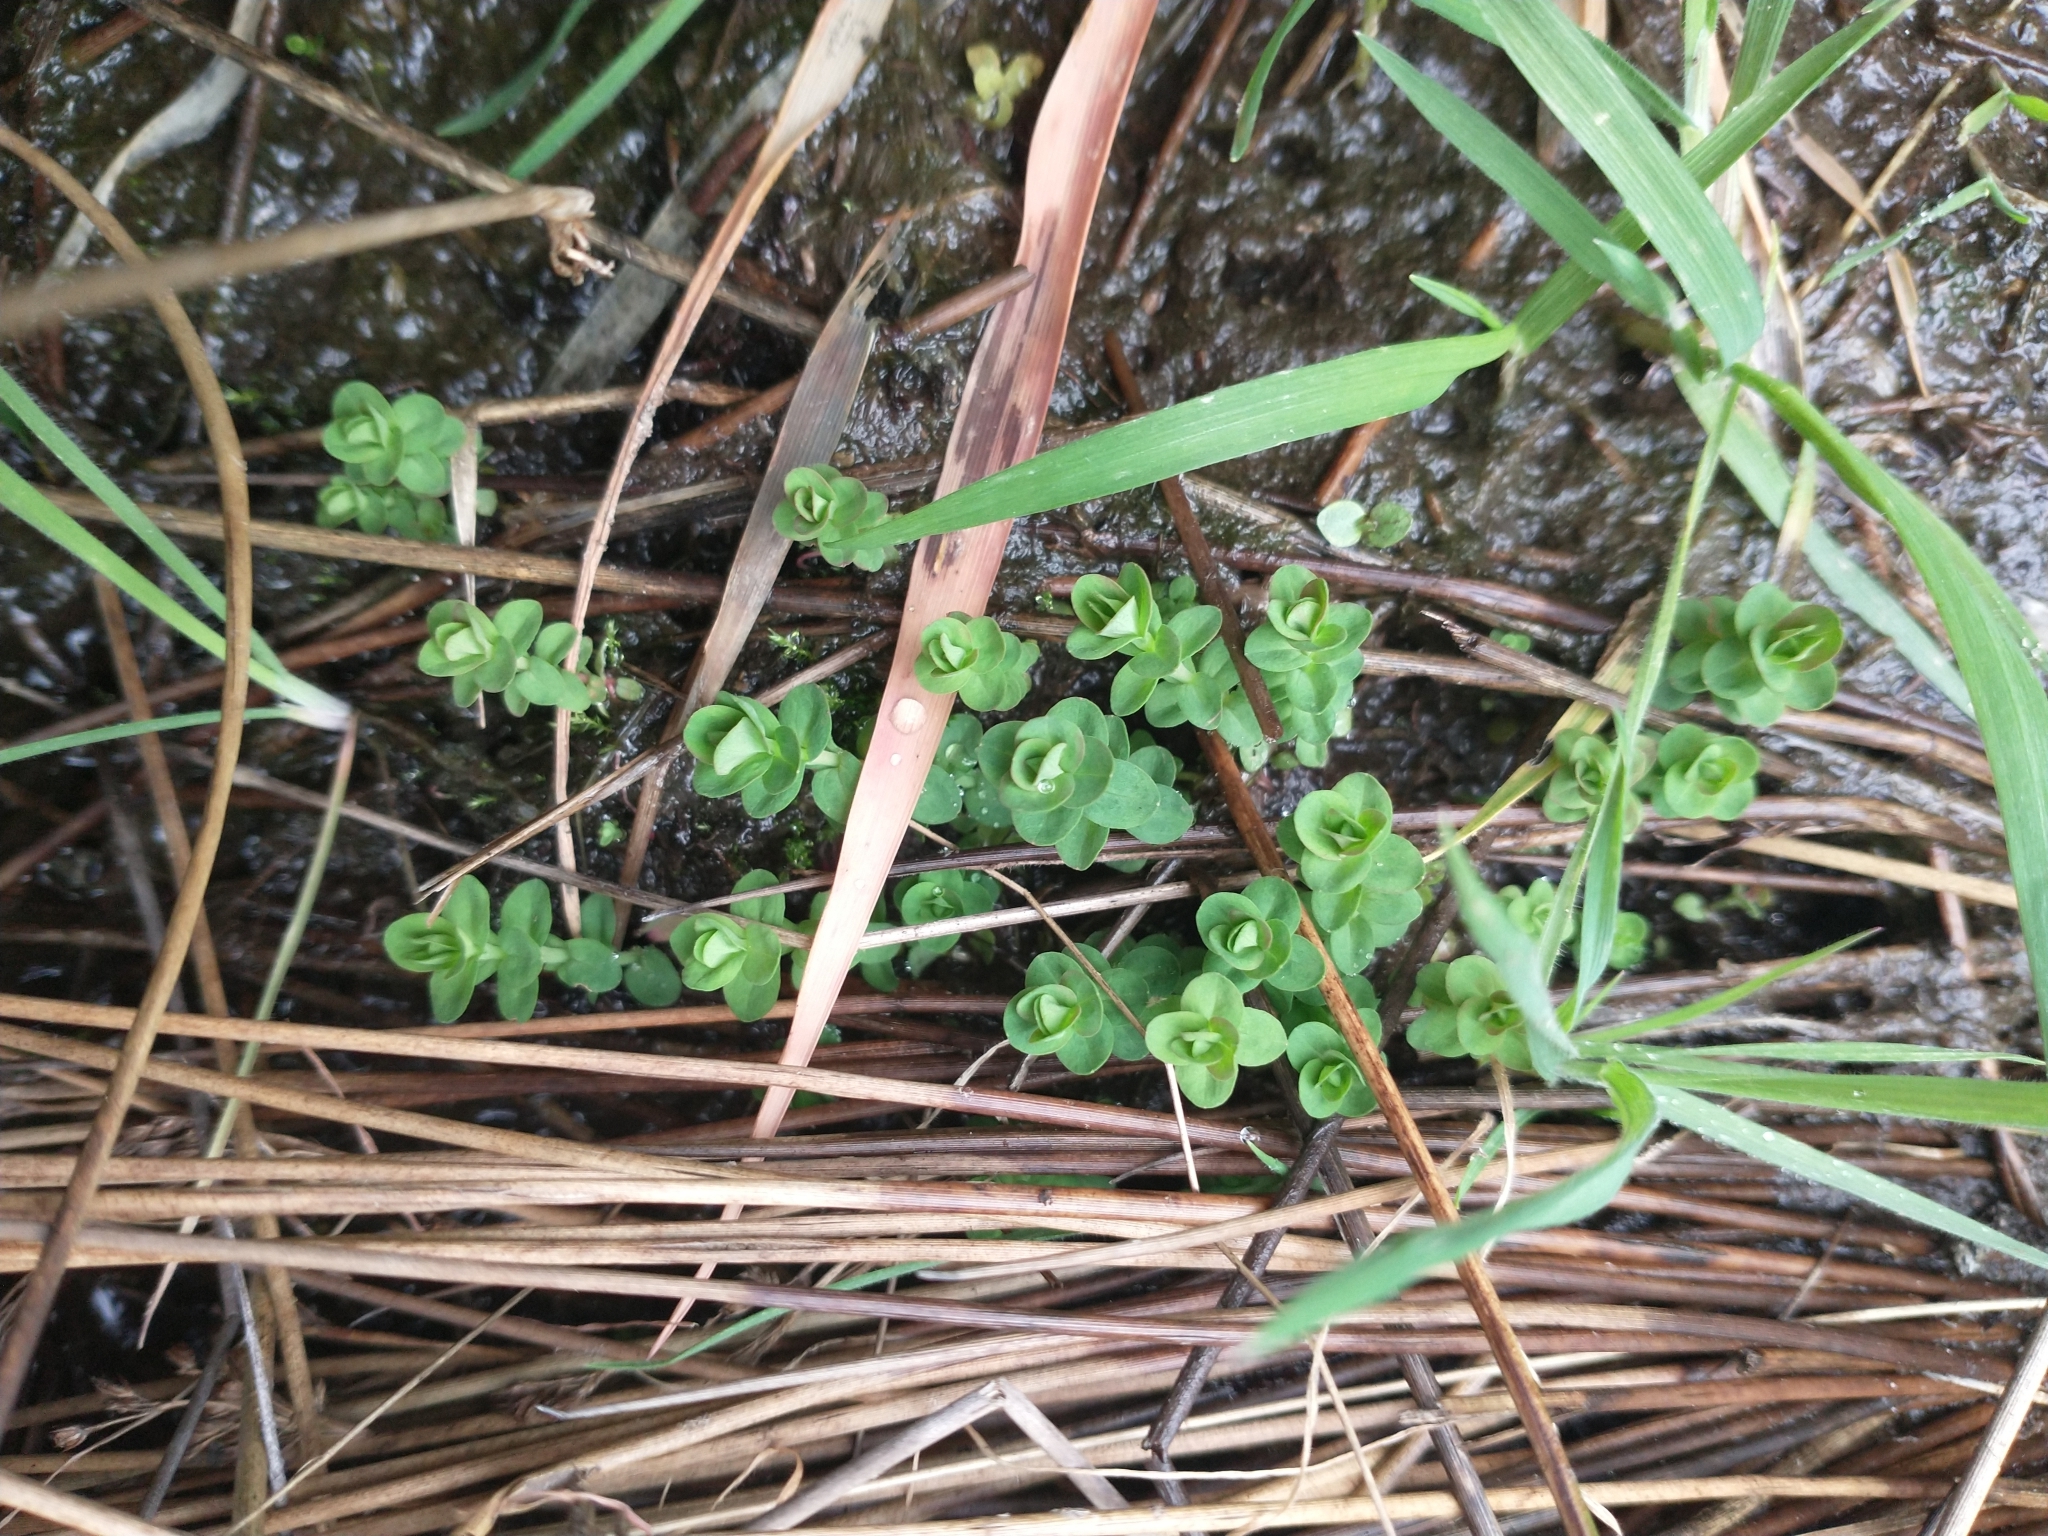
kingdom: Plantae
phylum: Tracheophyta
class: Magnoliopsida
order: Malpighiales
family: Hypericaceae
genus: Hypericum
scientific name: Hypericum anagalloides
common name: Bog st. john's-wort
